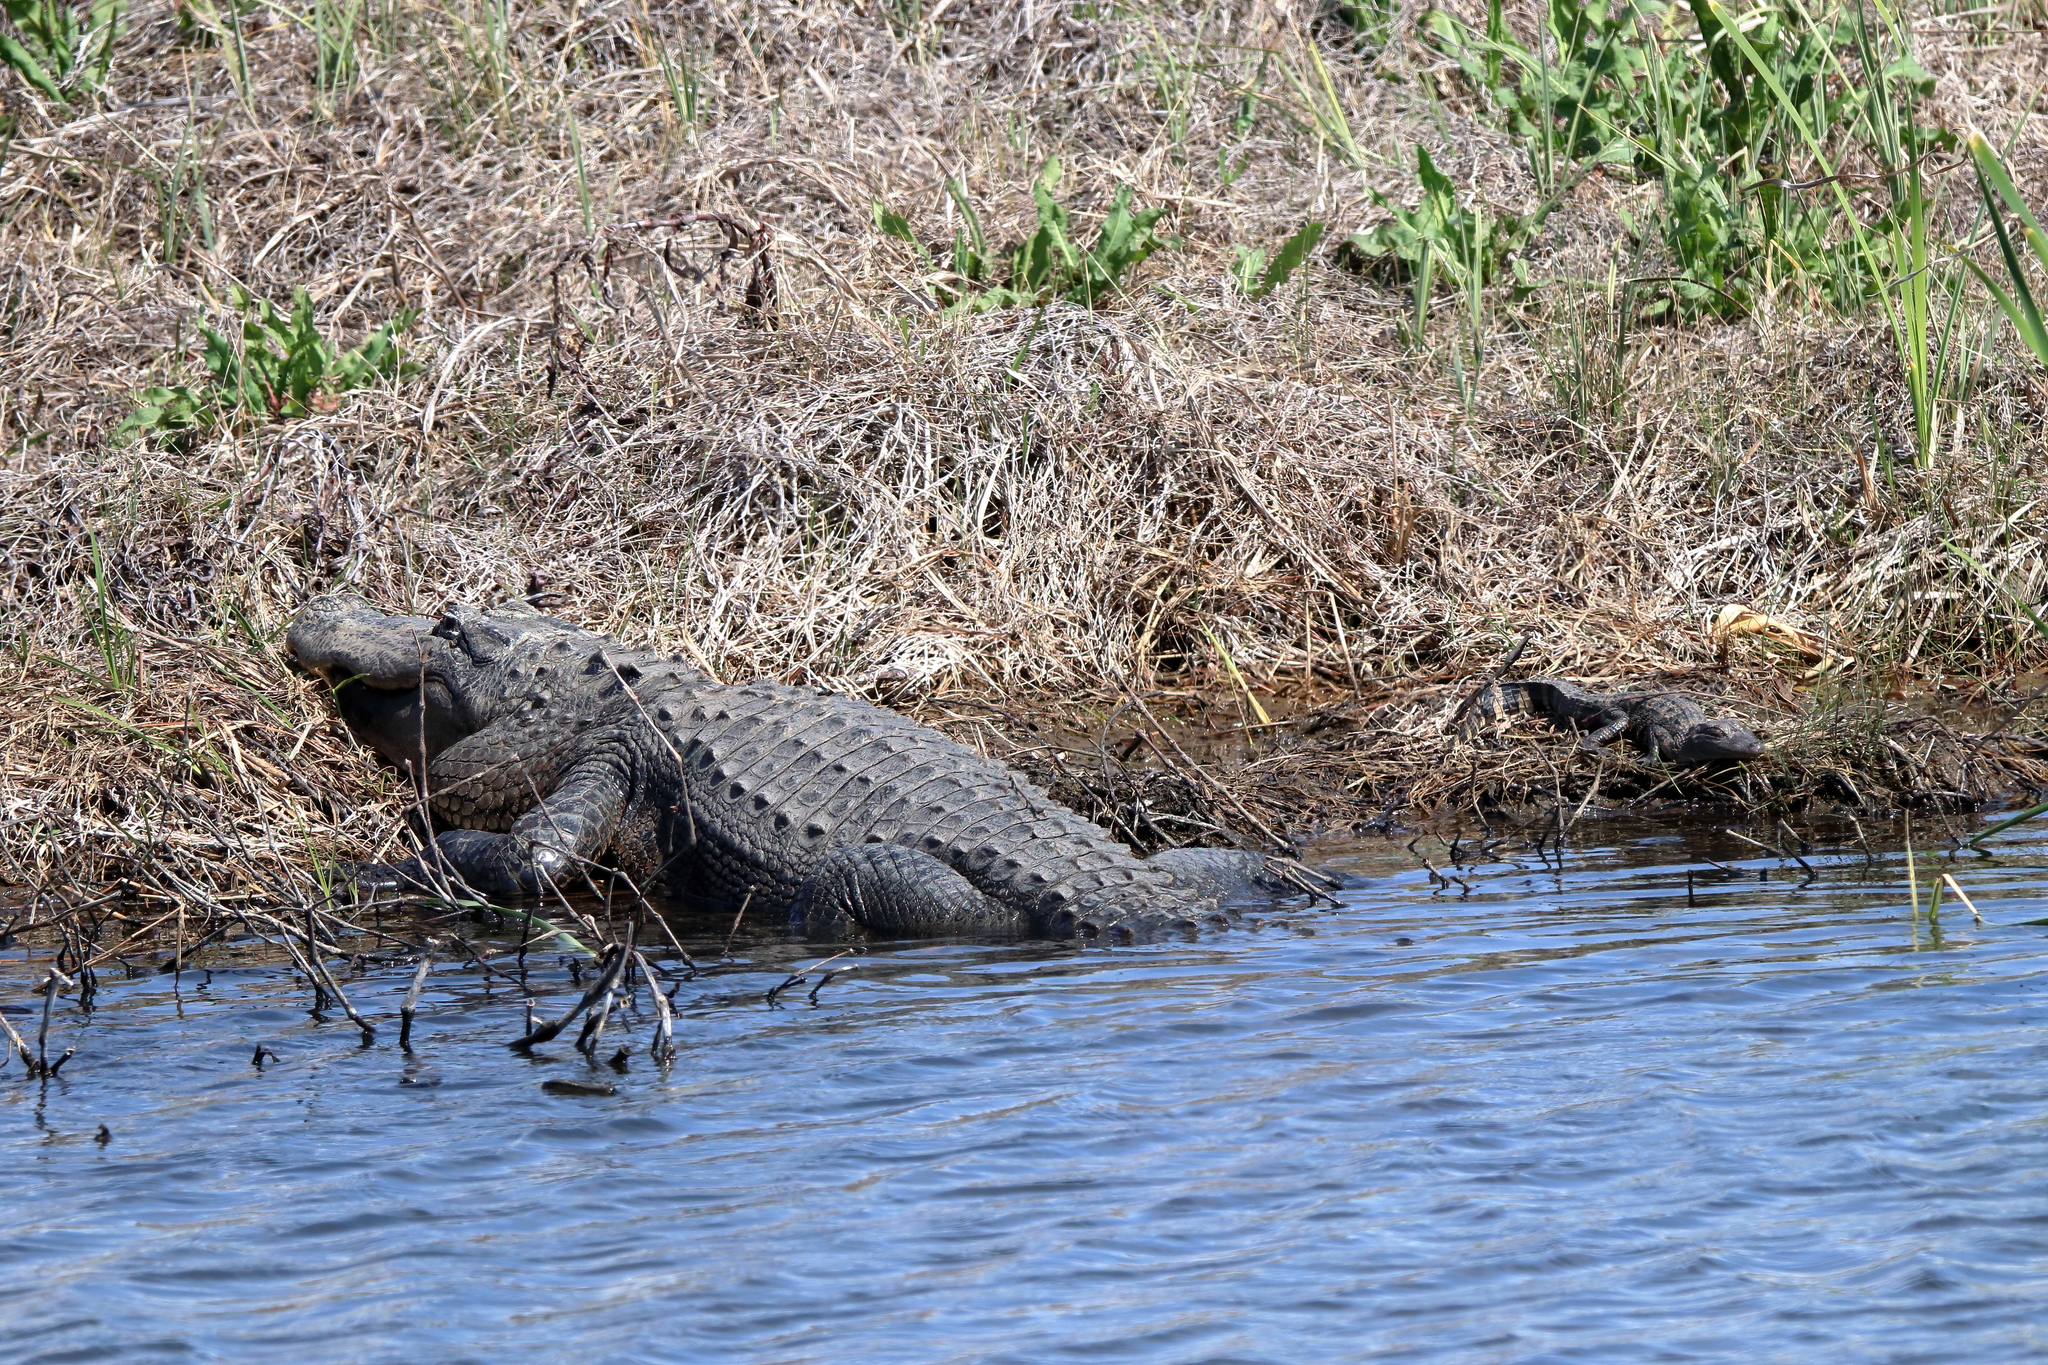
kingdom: Animalia
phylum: Chordata
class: Crocodylia
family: Alligatoridae
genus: Alligator
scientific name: Alligator mississippiensis
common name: American alligator
